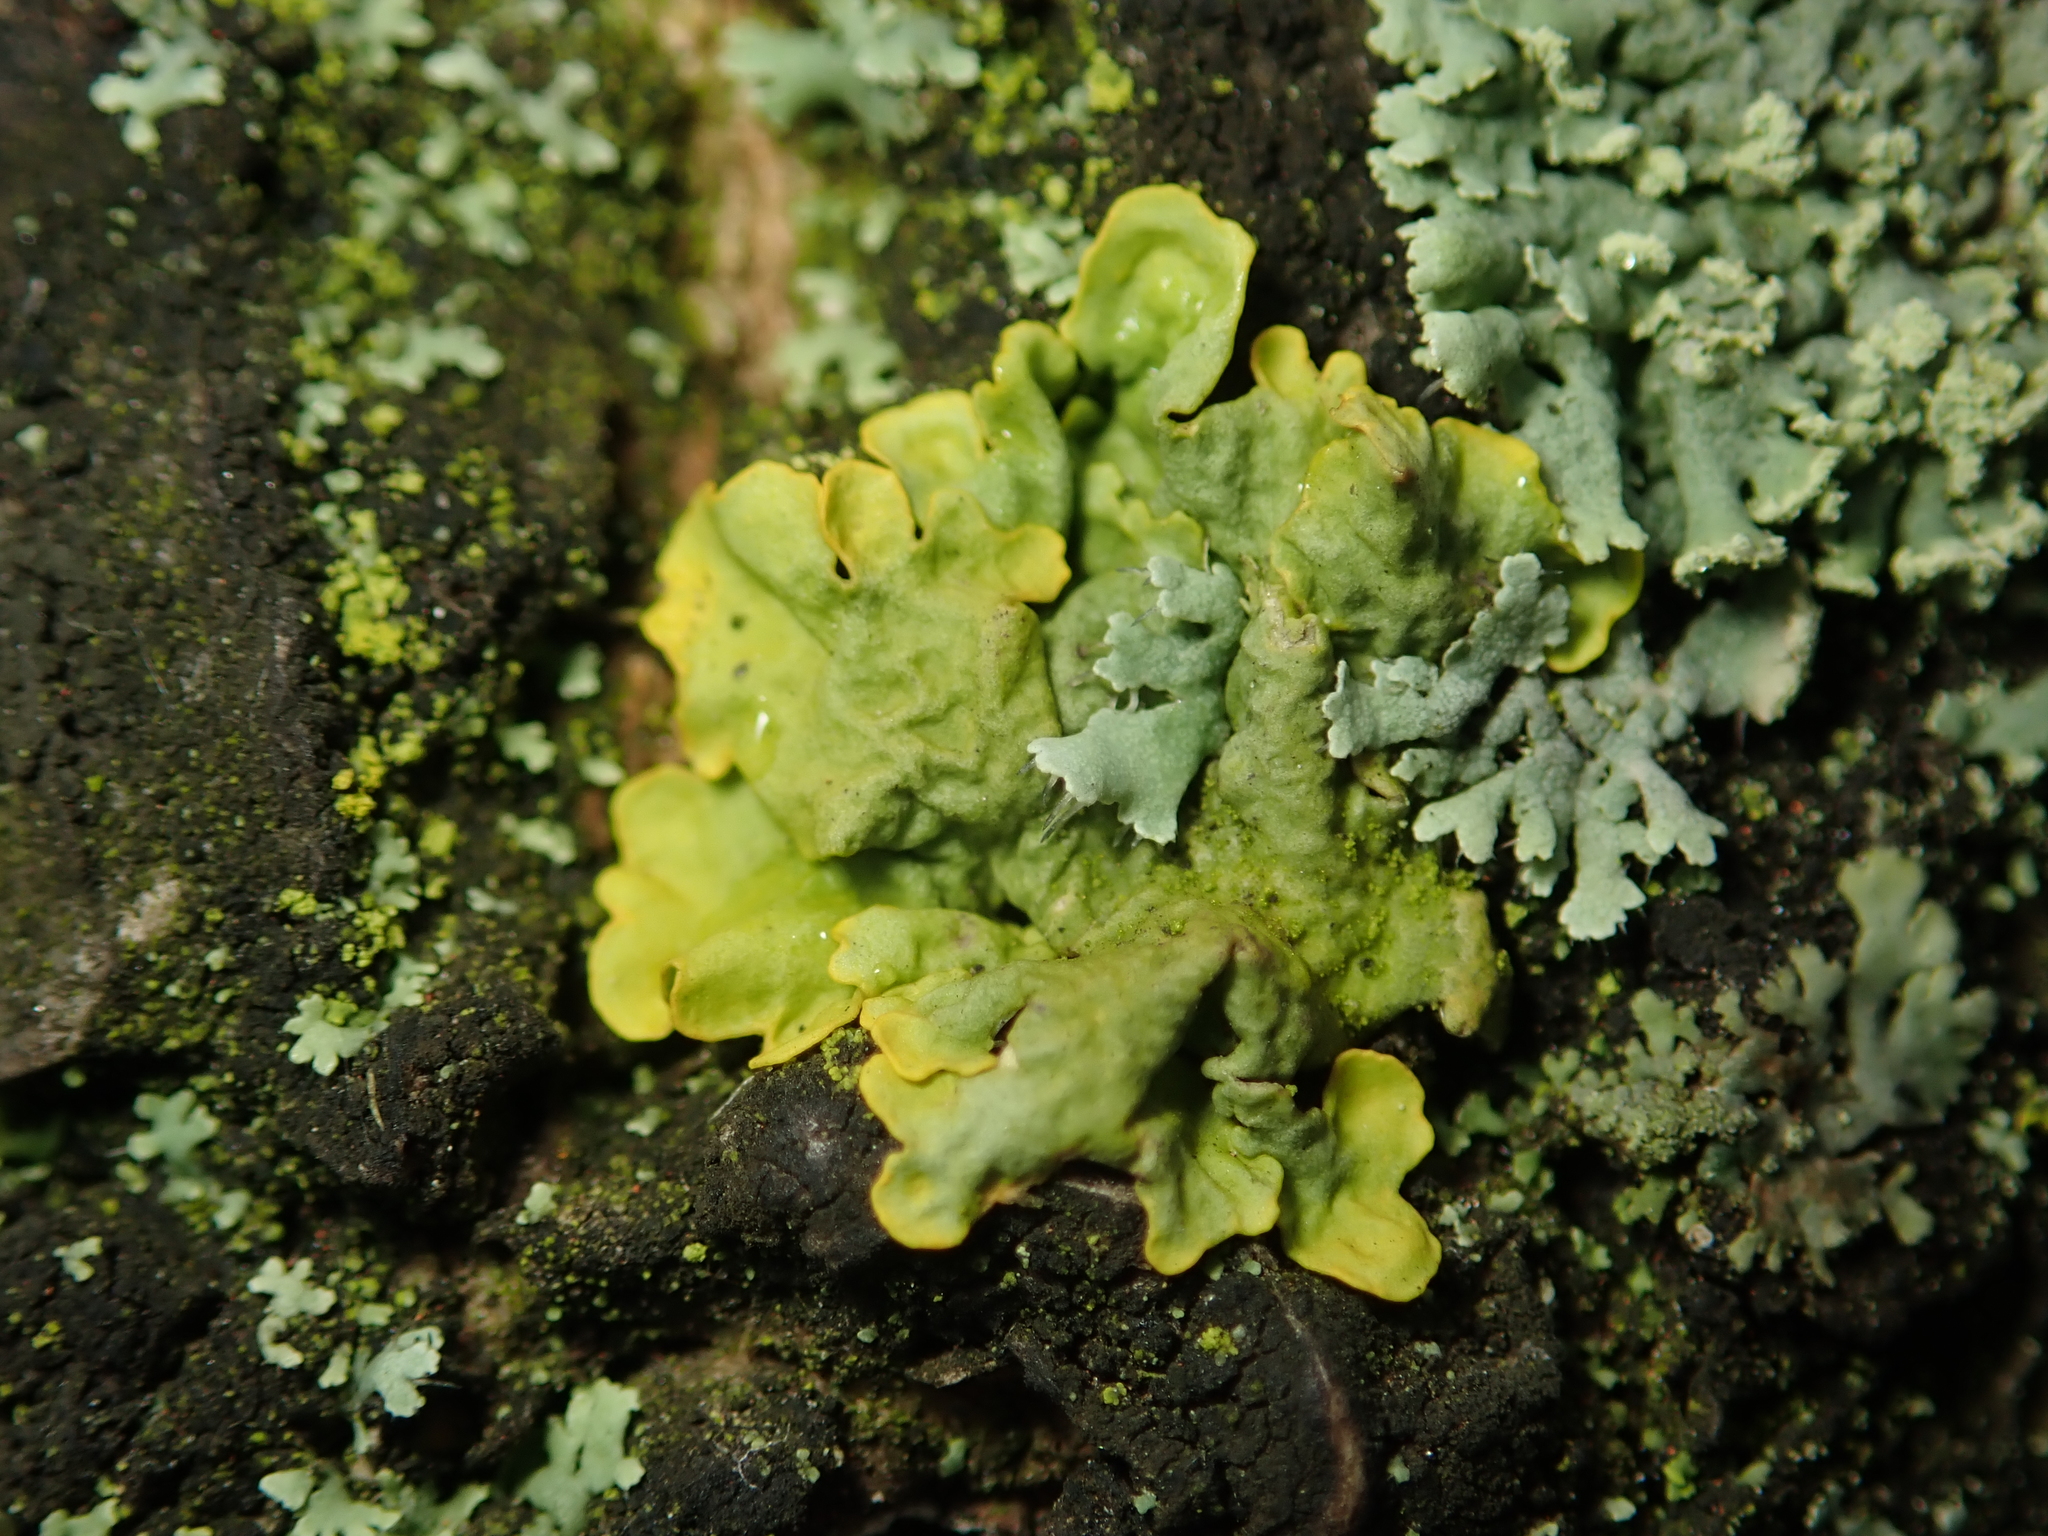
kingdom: Fungi
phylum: Ascomycota
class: Lecanoromycetes
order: Teloschistales
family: Teloschistaceae
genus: Xanthoria
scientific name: Xanthoria parietina
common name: Common orange lichen
